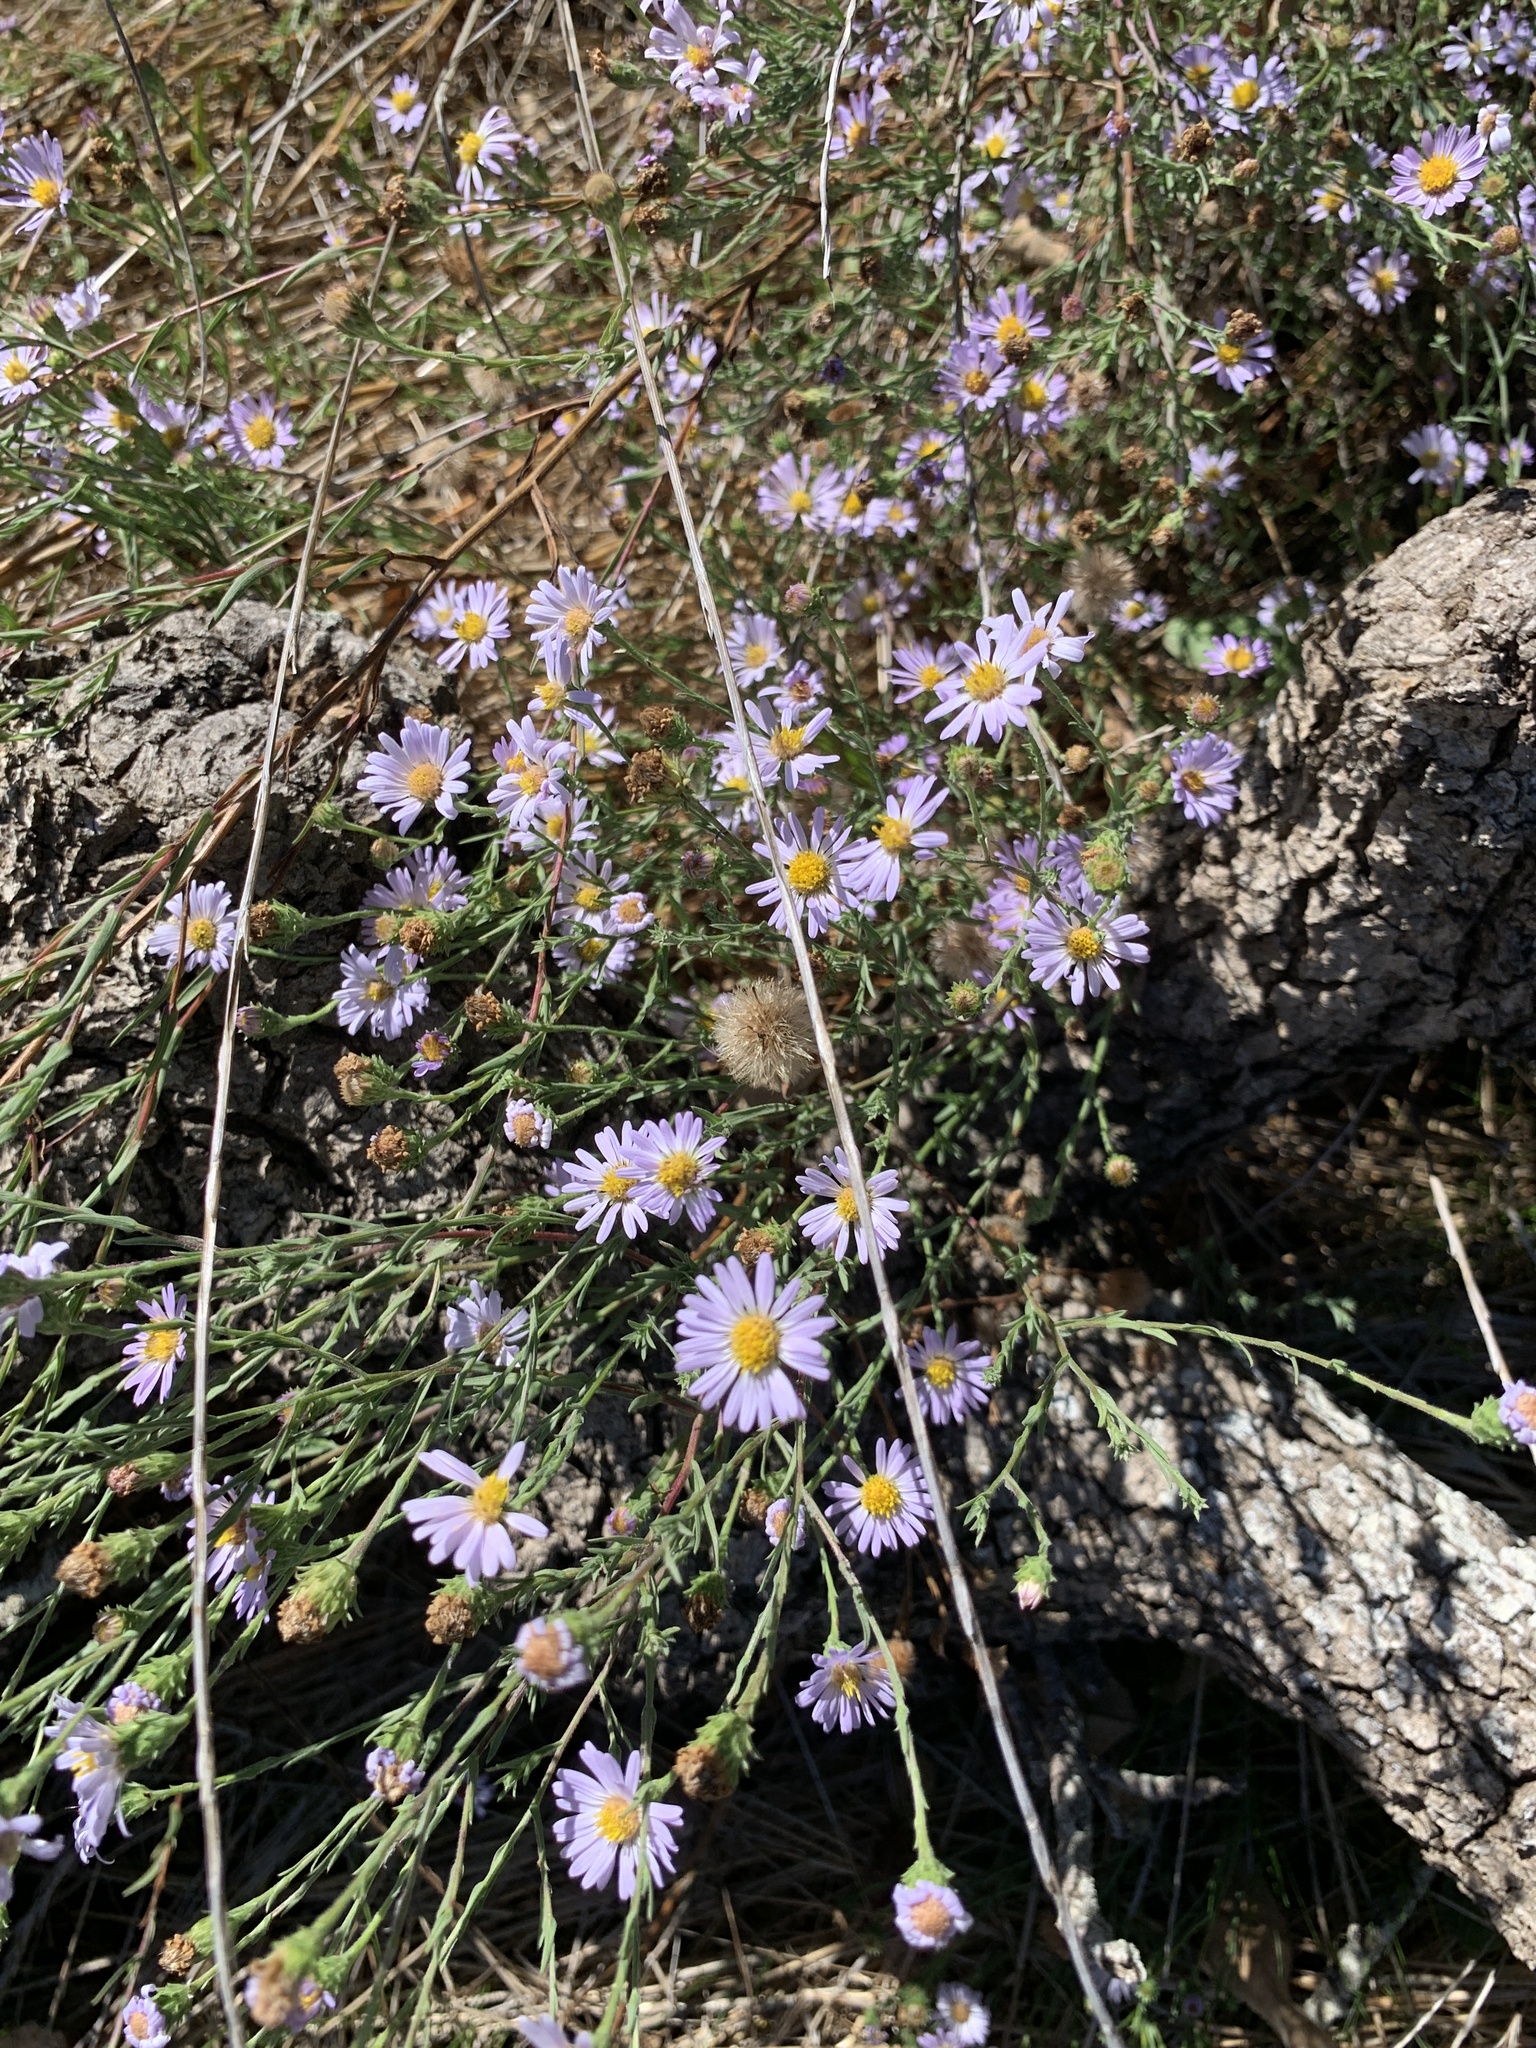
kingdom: Plantae
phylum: Tracheophyta
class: Magnoliopsida
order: Asterales
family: Asteraceae
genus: Corethrogyne
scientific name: Corethrogyne filaginifolia
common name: Sand-aster
